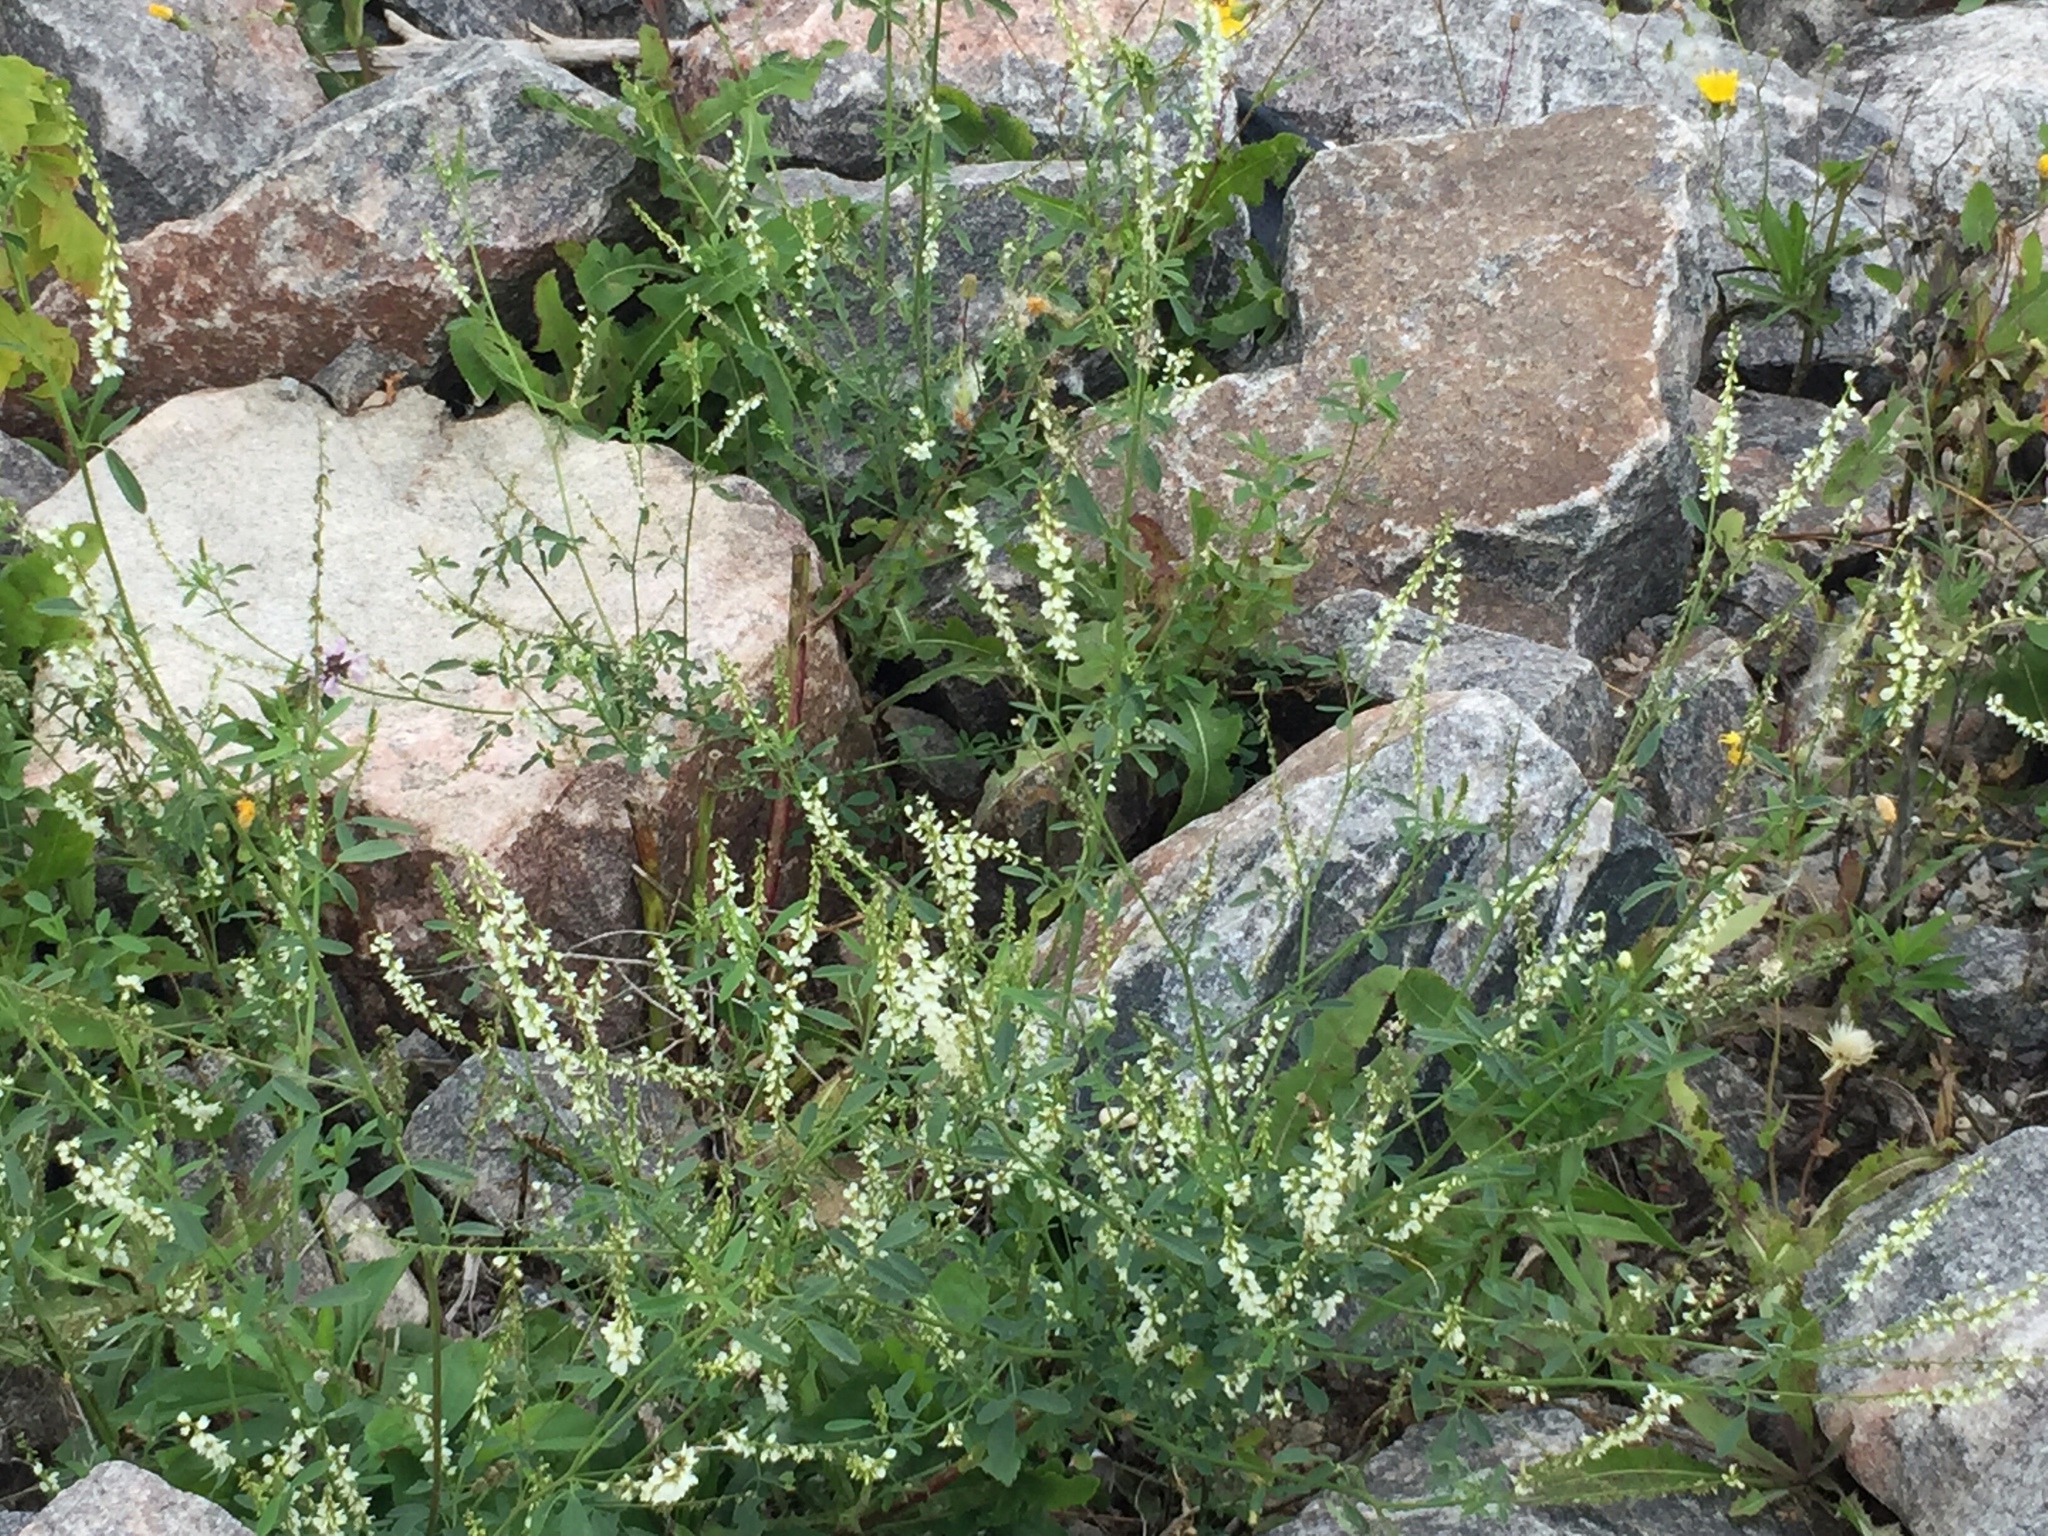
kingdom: Plantae
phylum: Tracheophyta
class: Magnoliopsida
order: Fabales
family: Fabaceae
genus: Melilotus
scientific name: Melilotus albus
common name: White melilot
